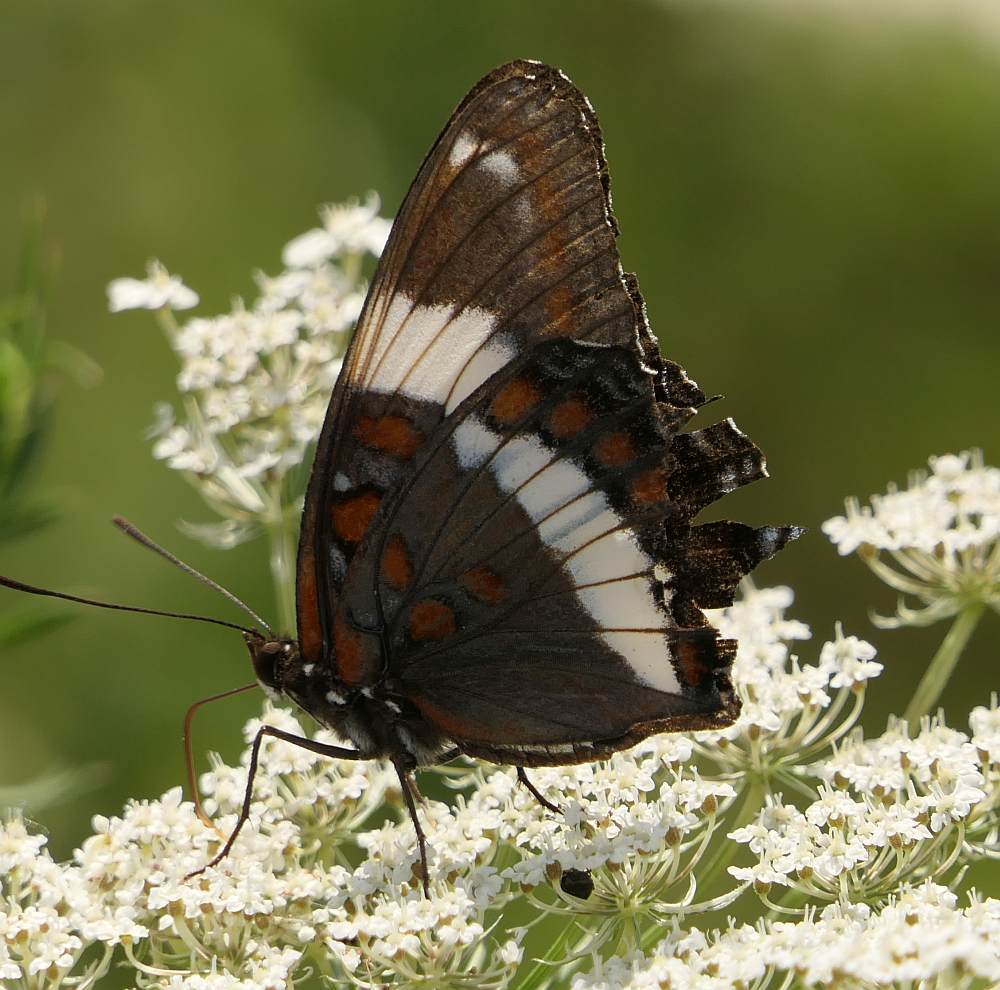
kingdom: Animalia
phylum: Arthropoda
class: Insecta
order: Lepidoptera
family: Nymphalidae
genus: Limenitis
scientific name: Limenitis arthemis
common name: Red-spotted admiral
